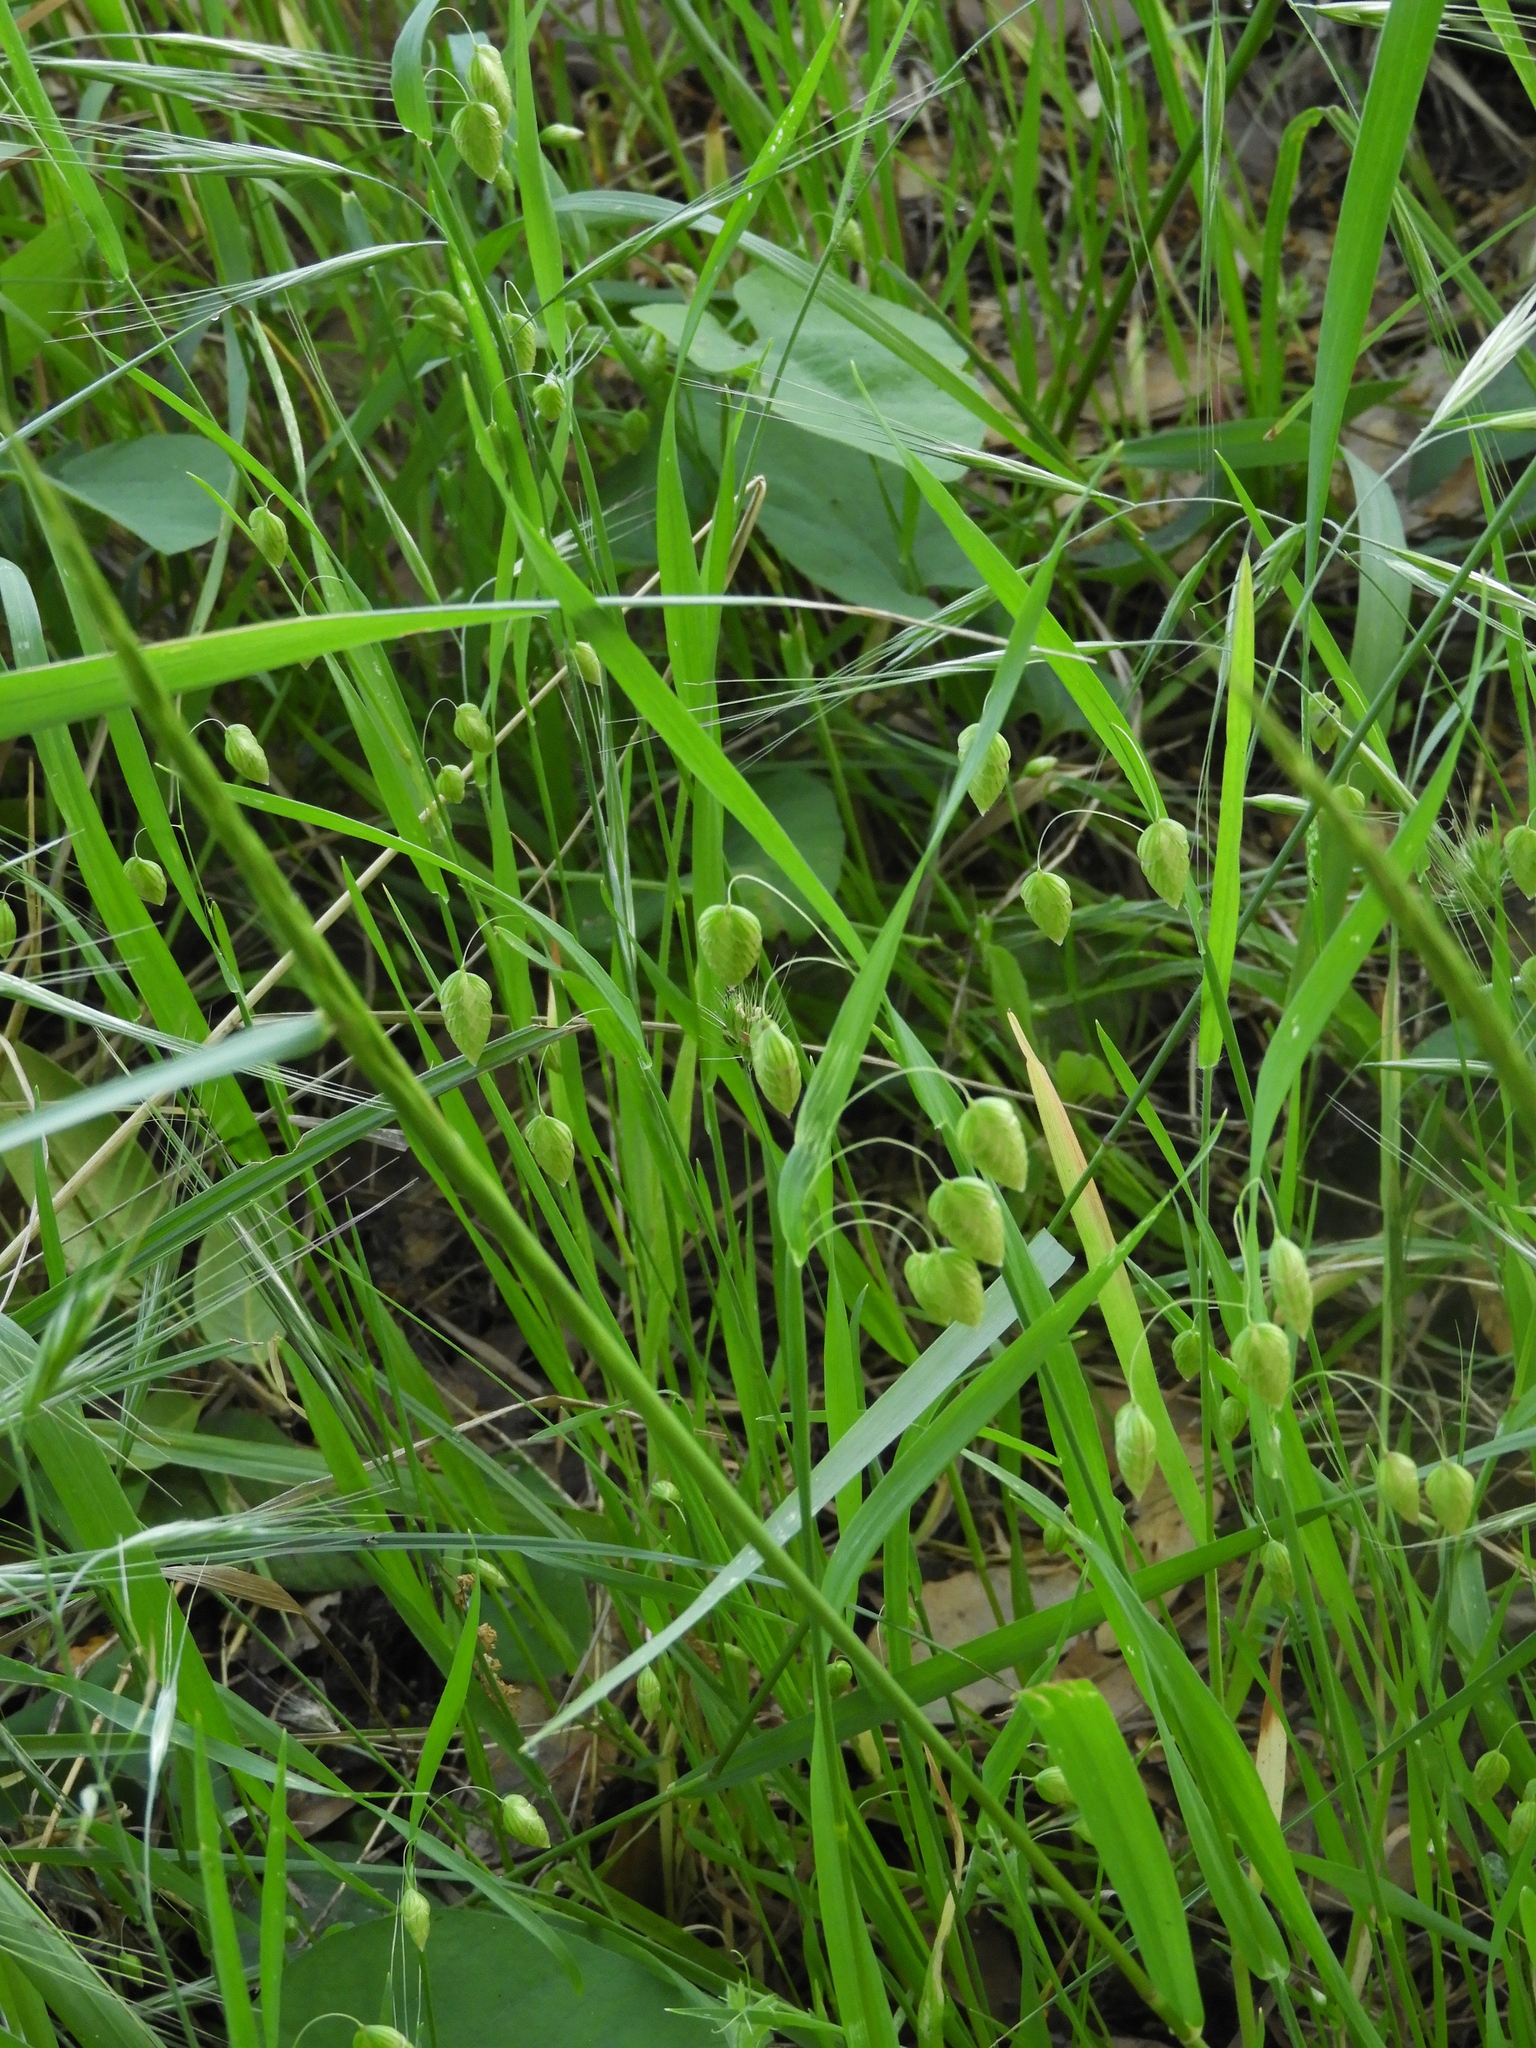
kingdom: Plantae
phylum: Tracheophyta
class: Liliopsida
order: Poales
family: Poaceae
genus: Briza
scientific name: Briza maxima
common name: Big quakinggrass
